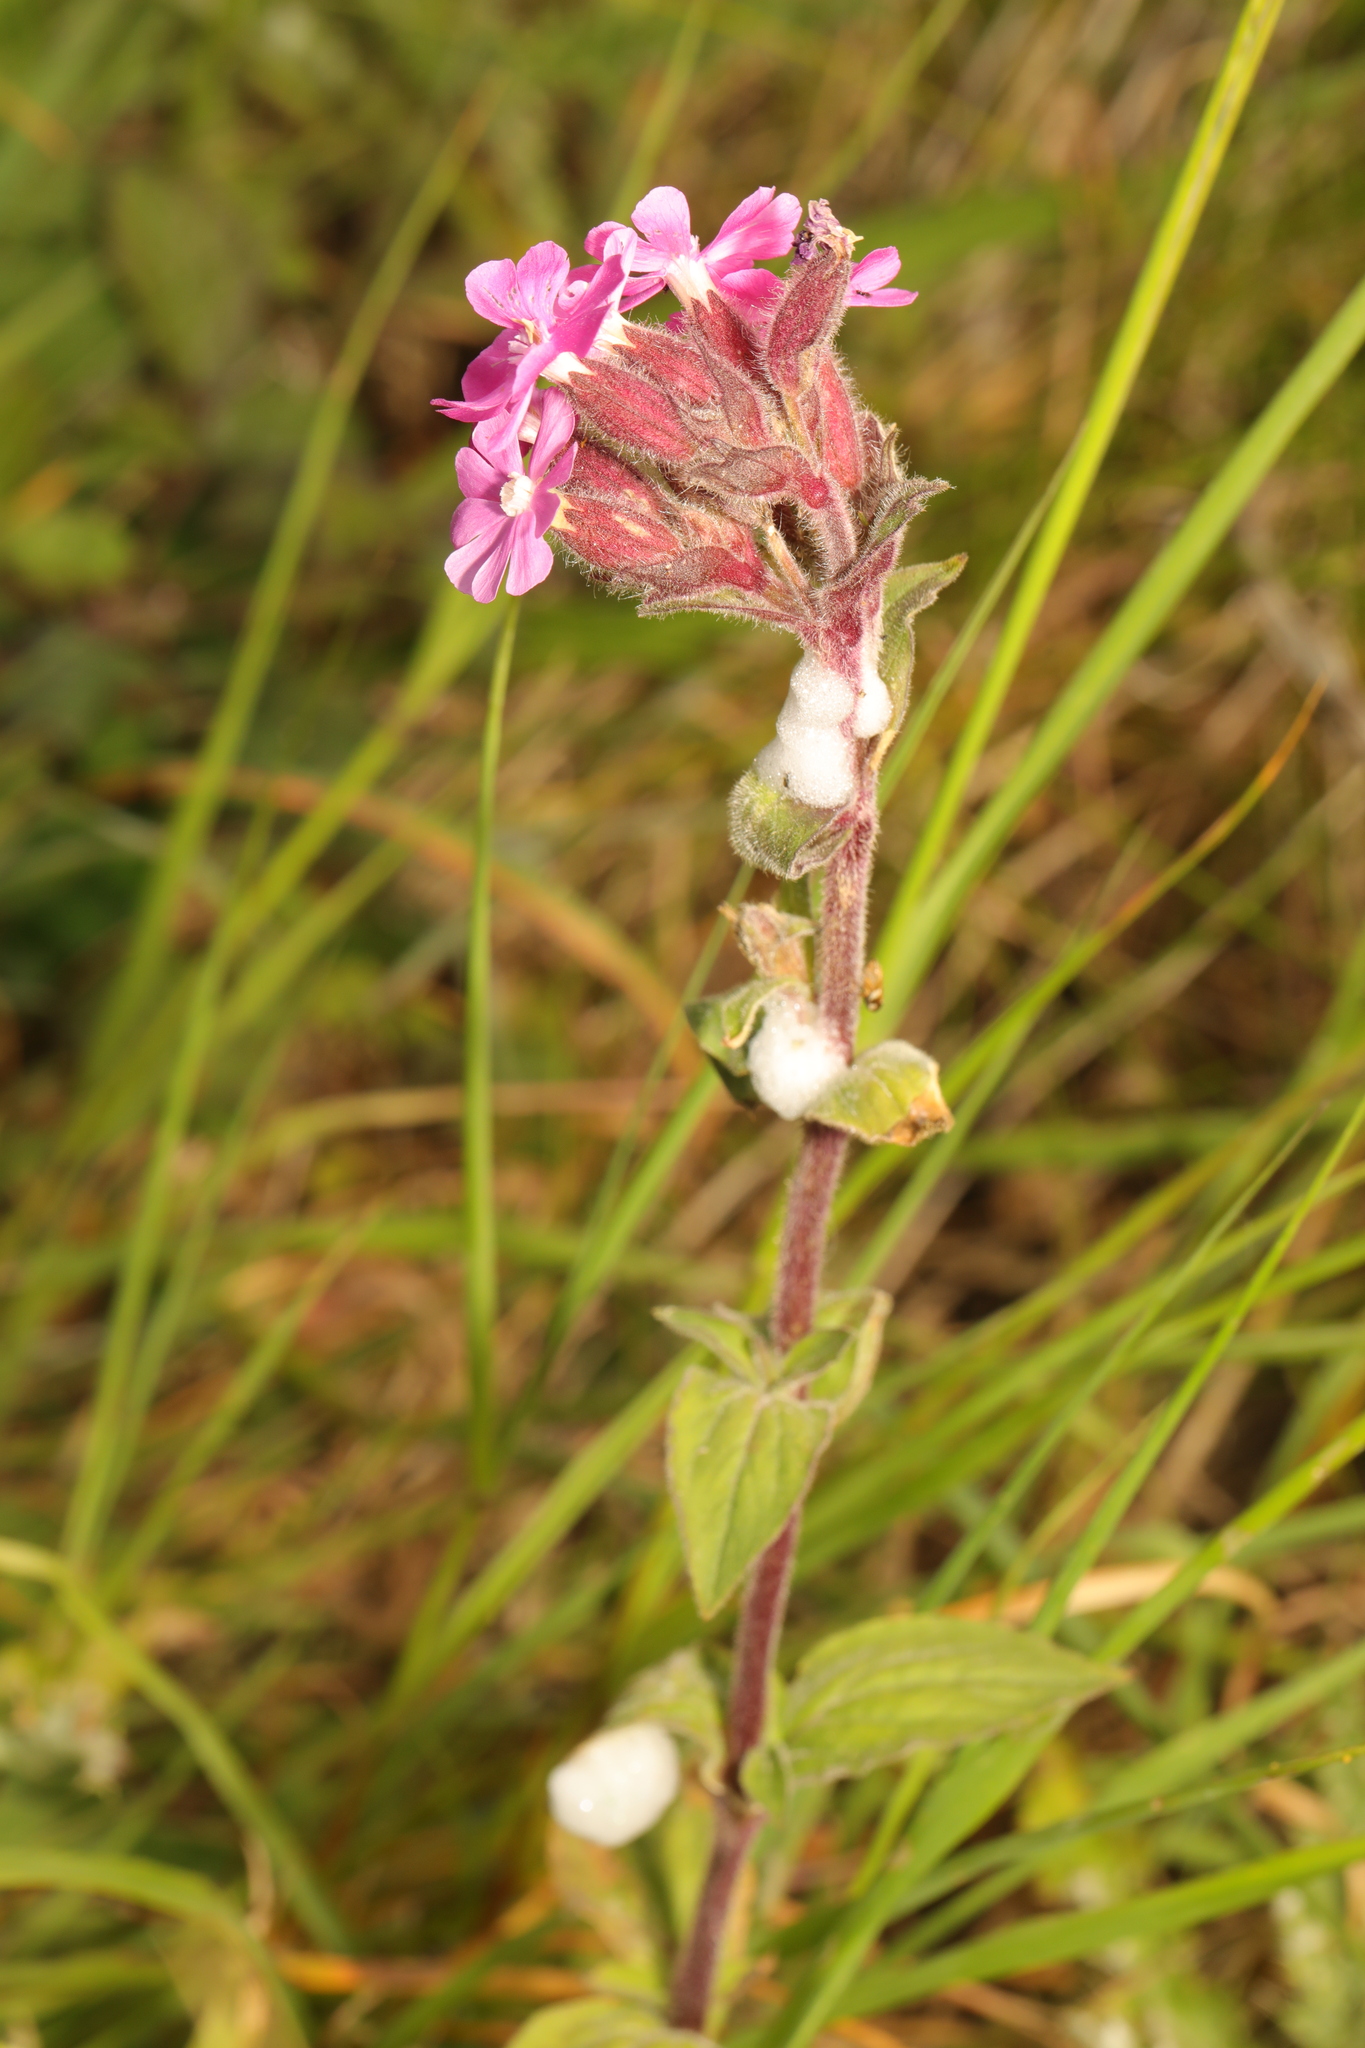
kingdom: Plantae
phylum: Tracheophyta
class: Magnoliopsida
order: Caryophyllales
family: Caryophyllaceae
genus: Silene
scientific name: Silene dioica
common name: Red campion
